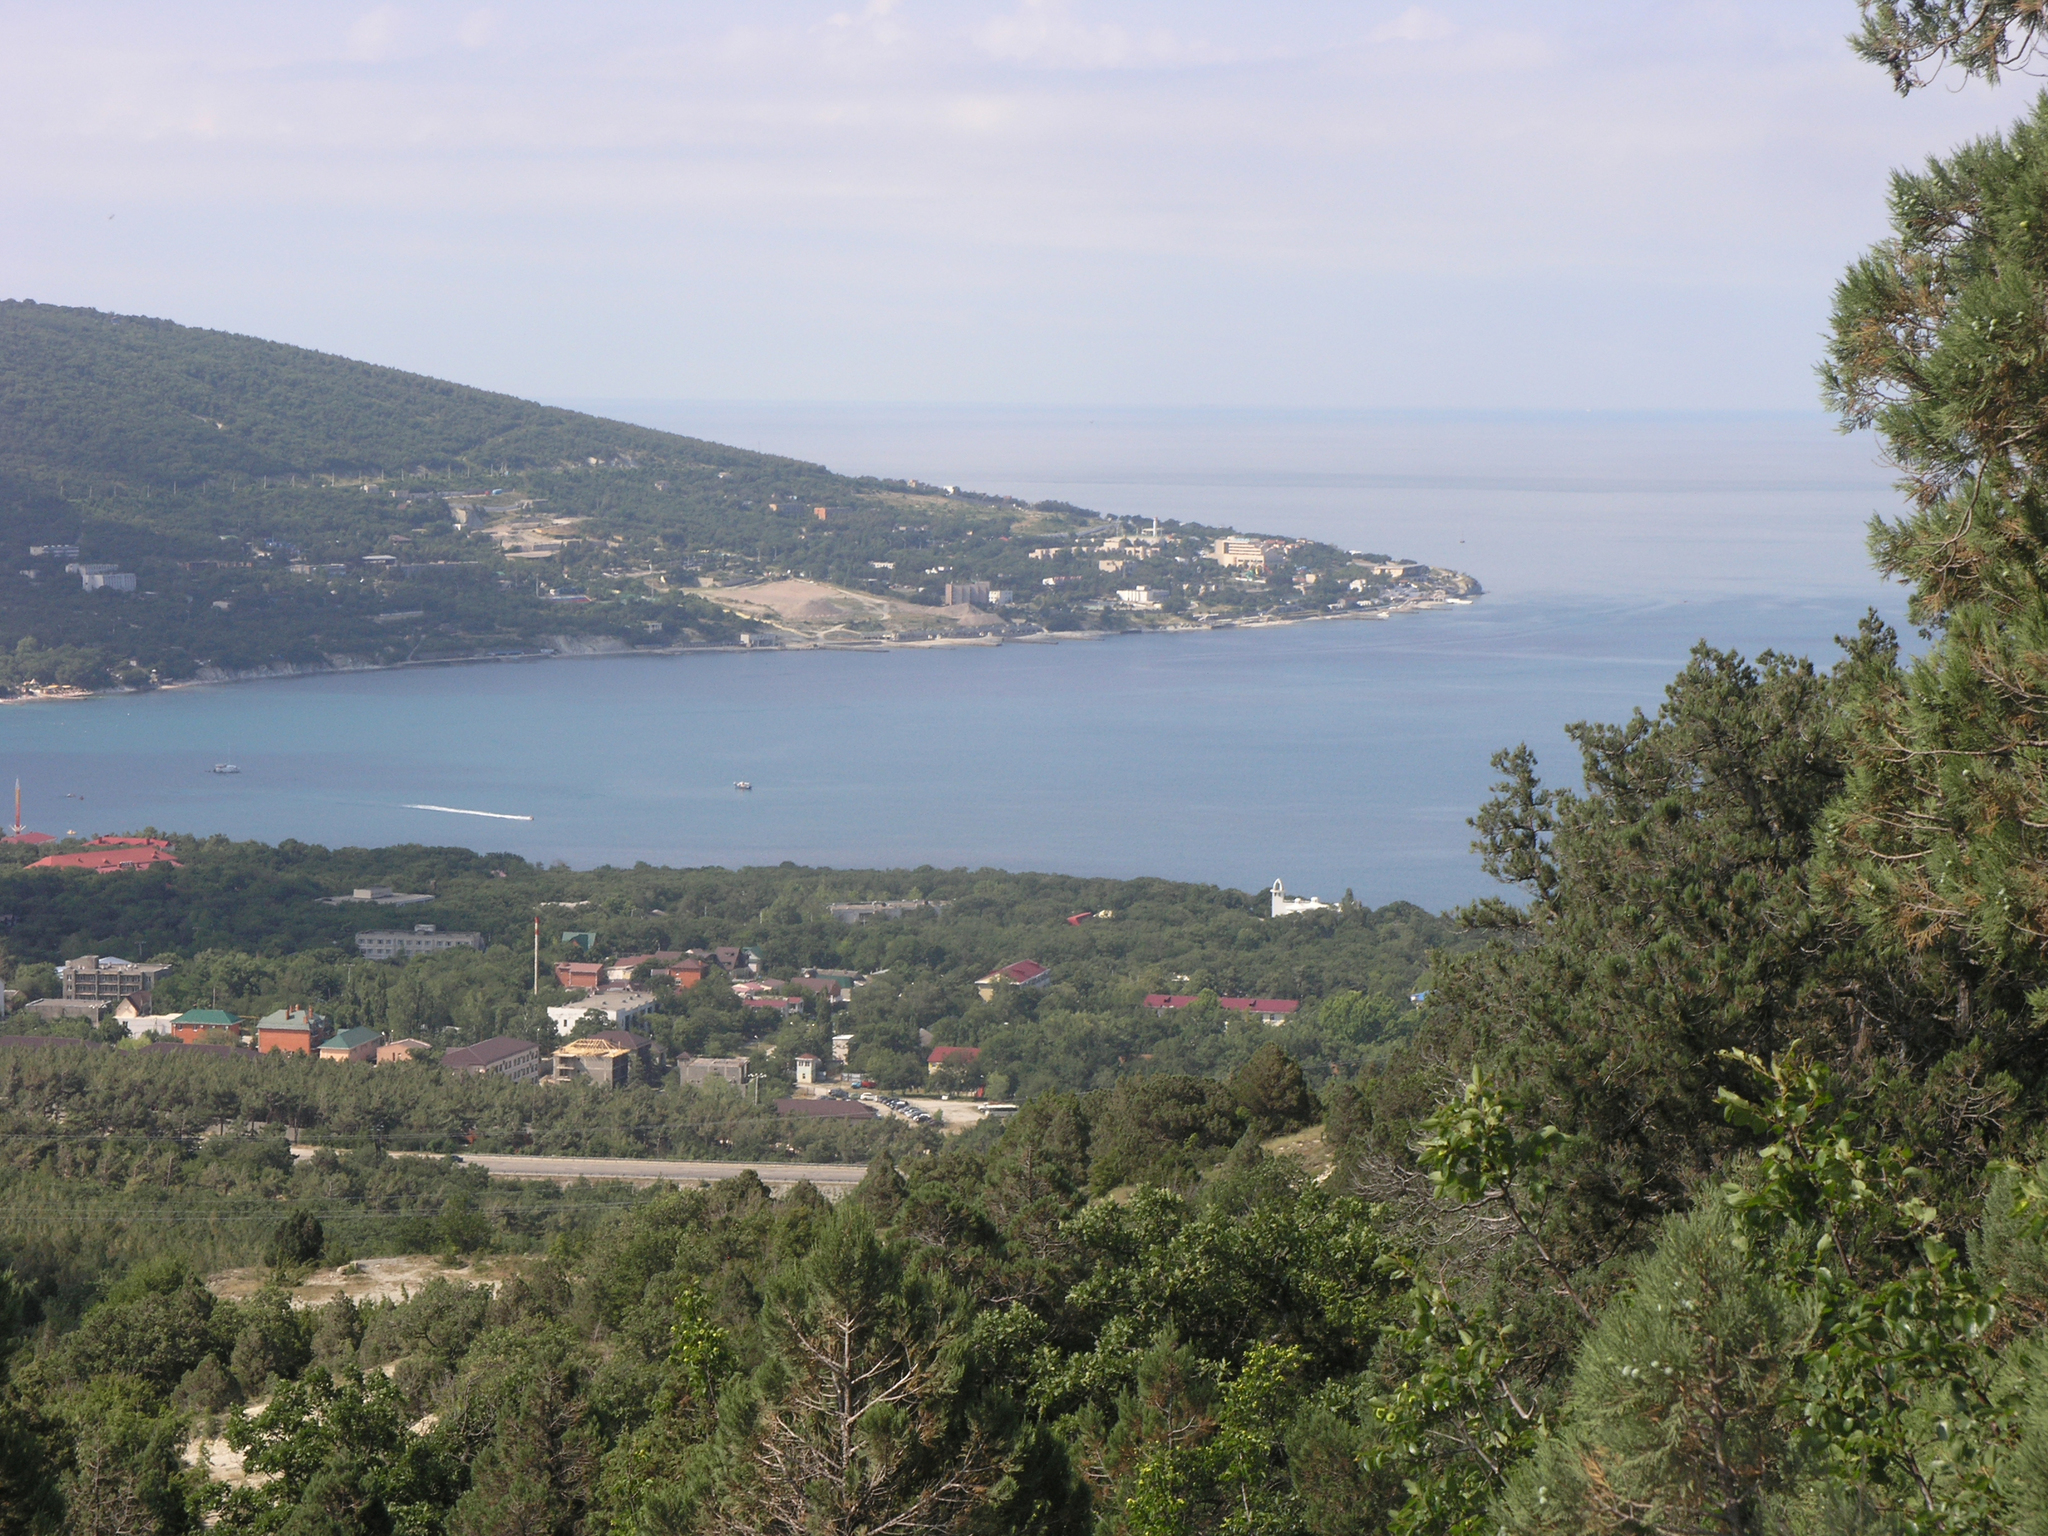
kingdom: Plantae
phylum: Tracheophyta
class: Pinopsida
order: Pinales
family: Cupressaceae
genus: Juniperus
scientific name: Juniperus excelsa
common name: Crimean juniper
